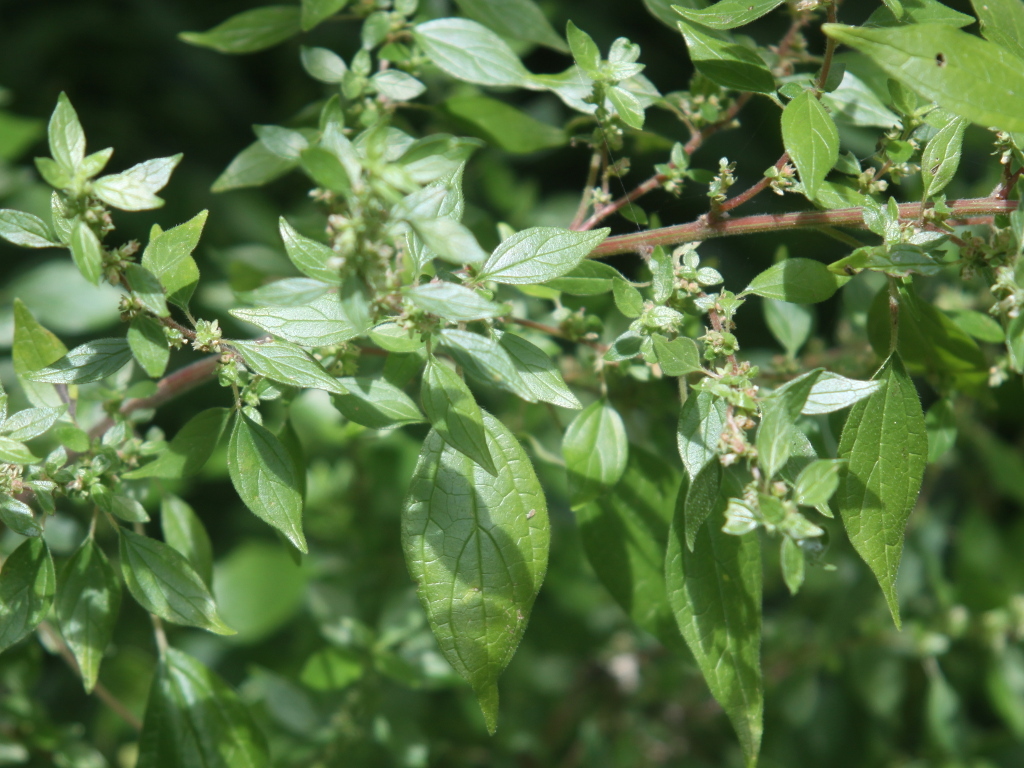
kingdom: Plantae
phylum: Tracheophyta
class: Magnoliopsida
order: Rosales
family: Urticaceae
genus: Parietaria
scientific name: Parietaria judaica
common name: Pellitory-of-the-wall
